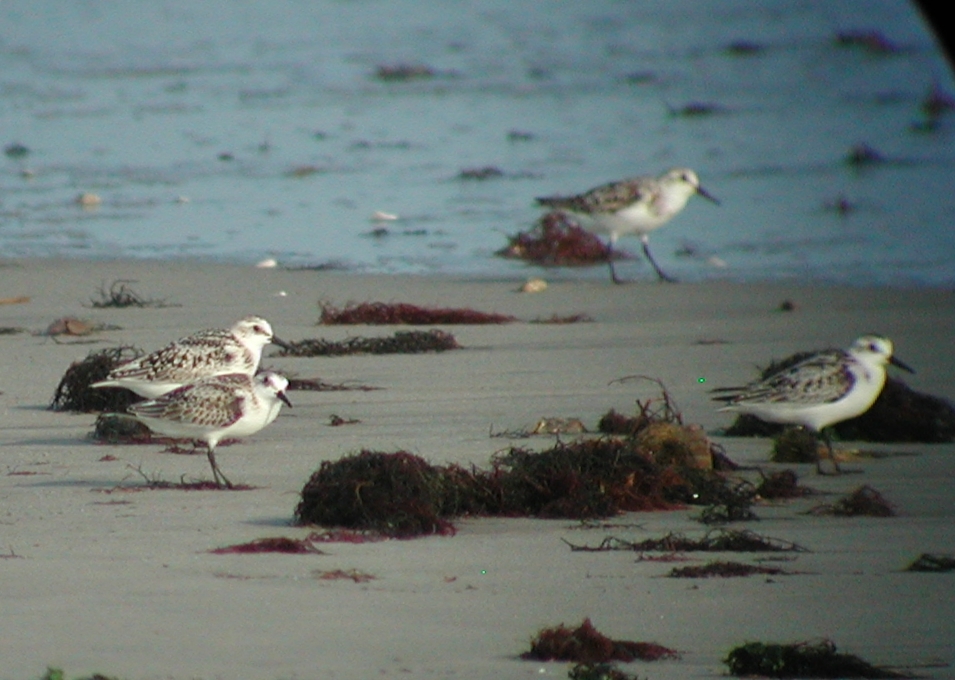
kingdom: Animalia
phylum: Chordata
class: Aves
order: Charadriiformes
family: Scolopacidae
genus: Calidris
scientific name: Calidris alba
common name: Sanderling
